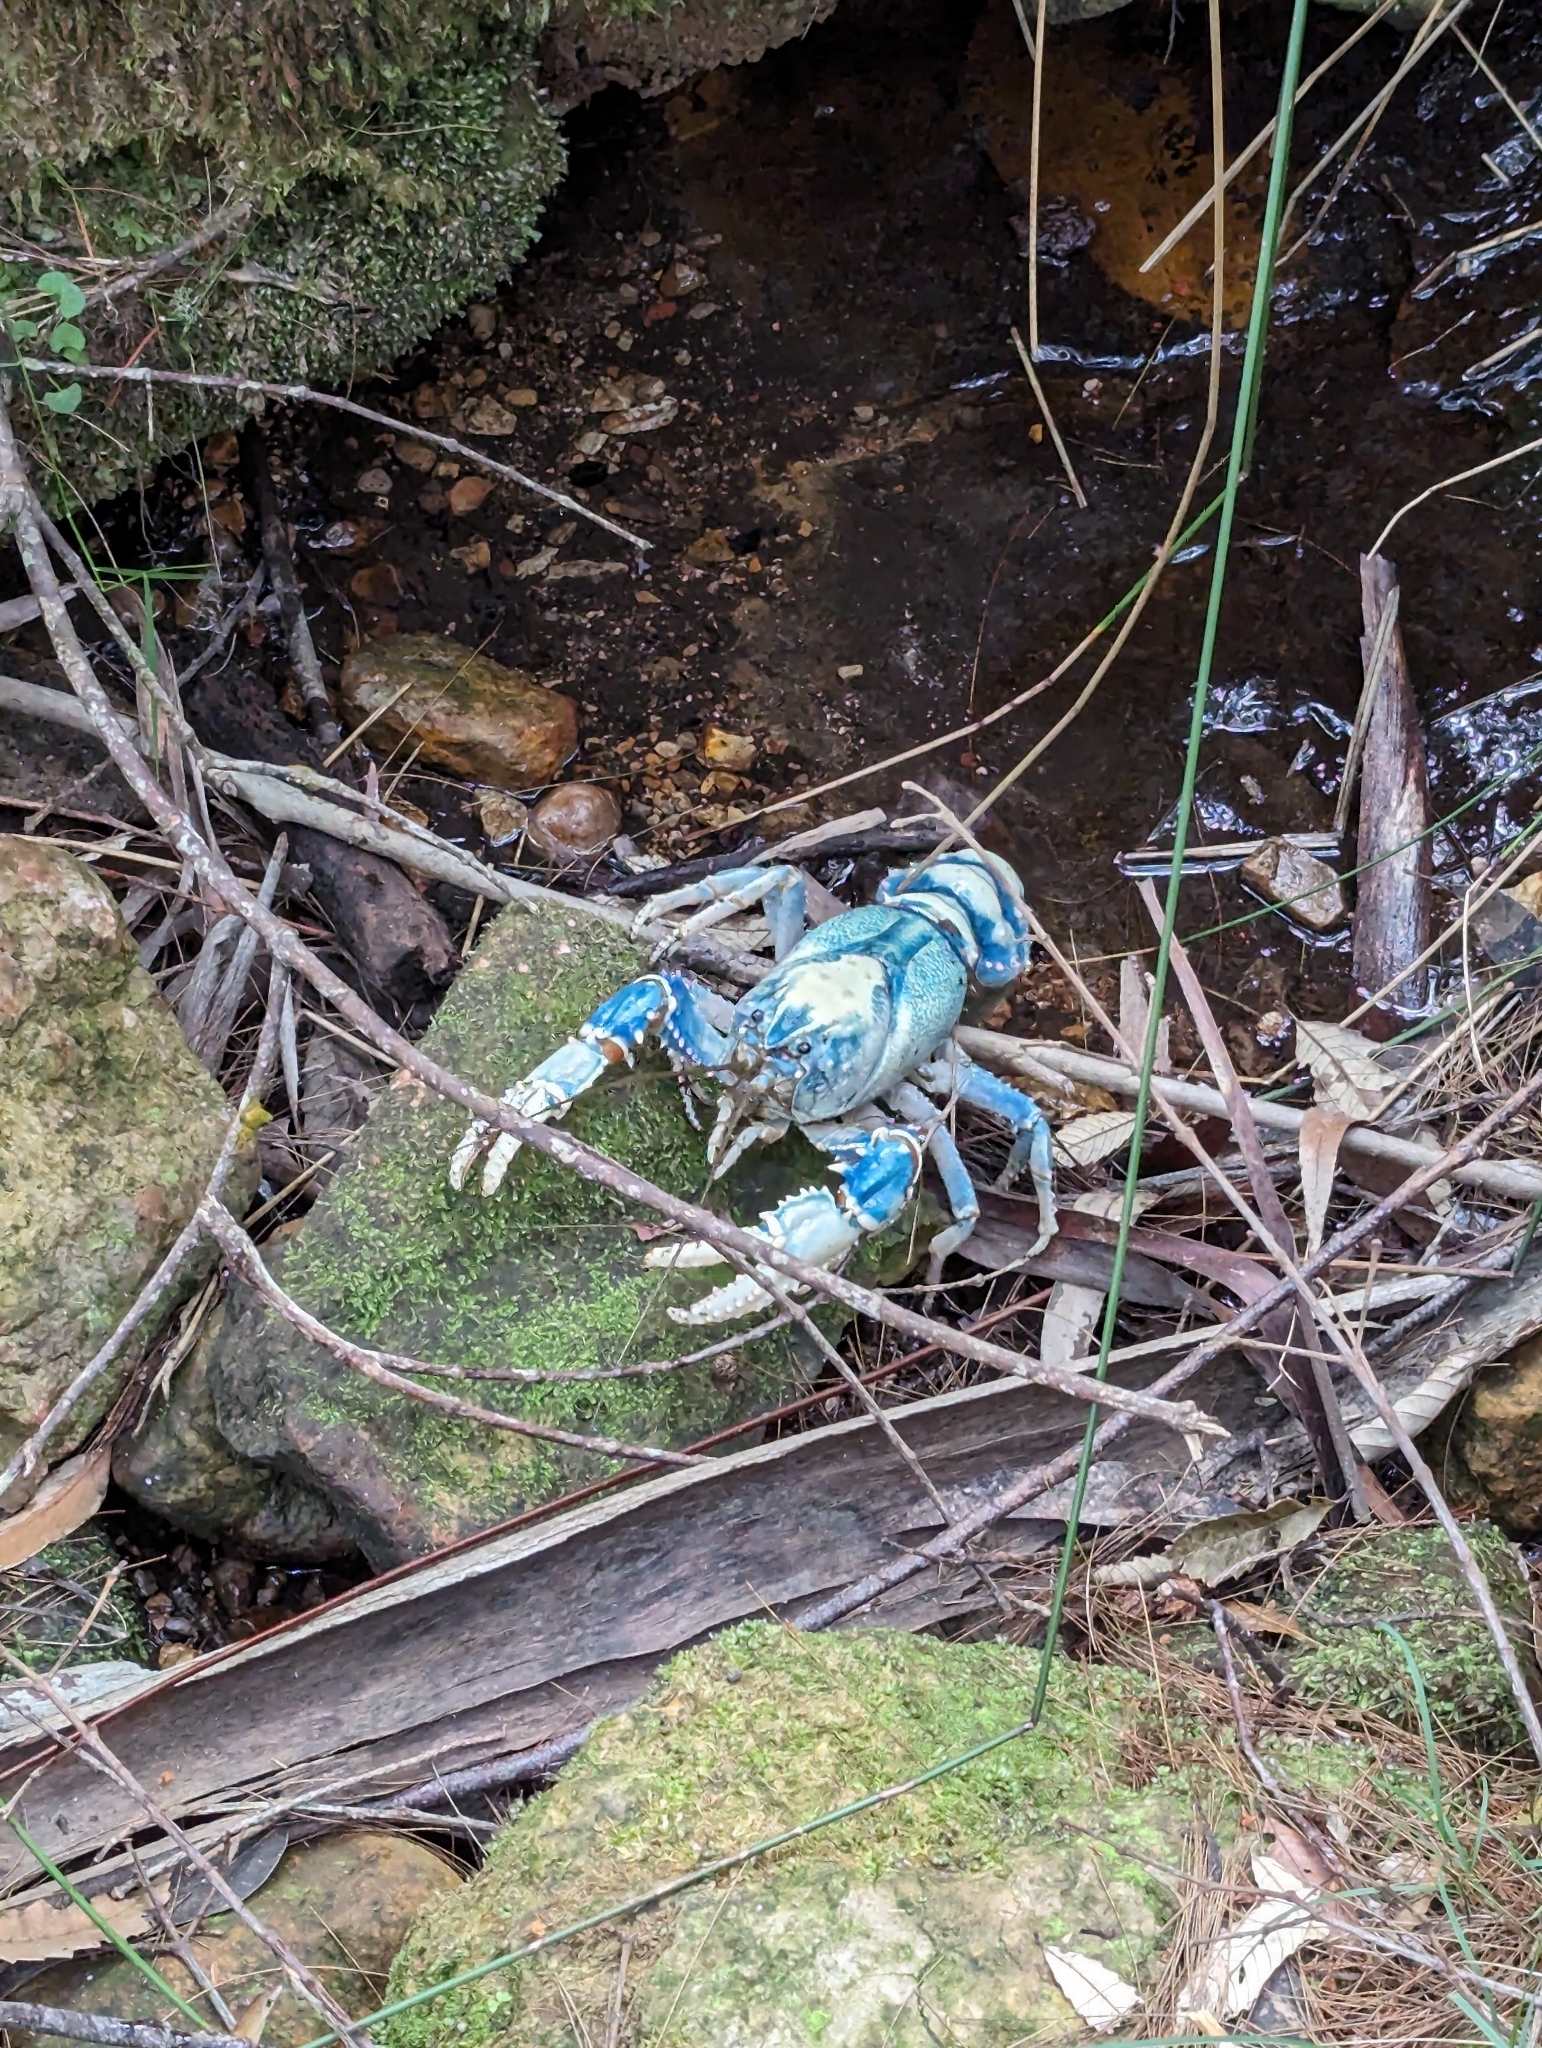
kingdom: Animalia
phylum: Arthropoda
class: Malacostraca
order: Decapoda
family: Parastacidae
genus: Euastacus
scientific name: Euastacus sulcatus
